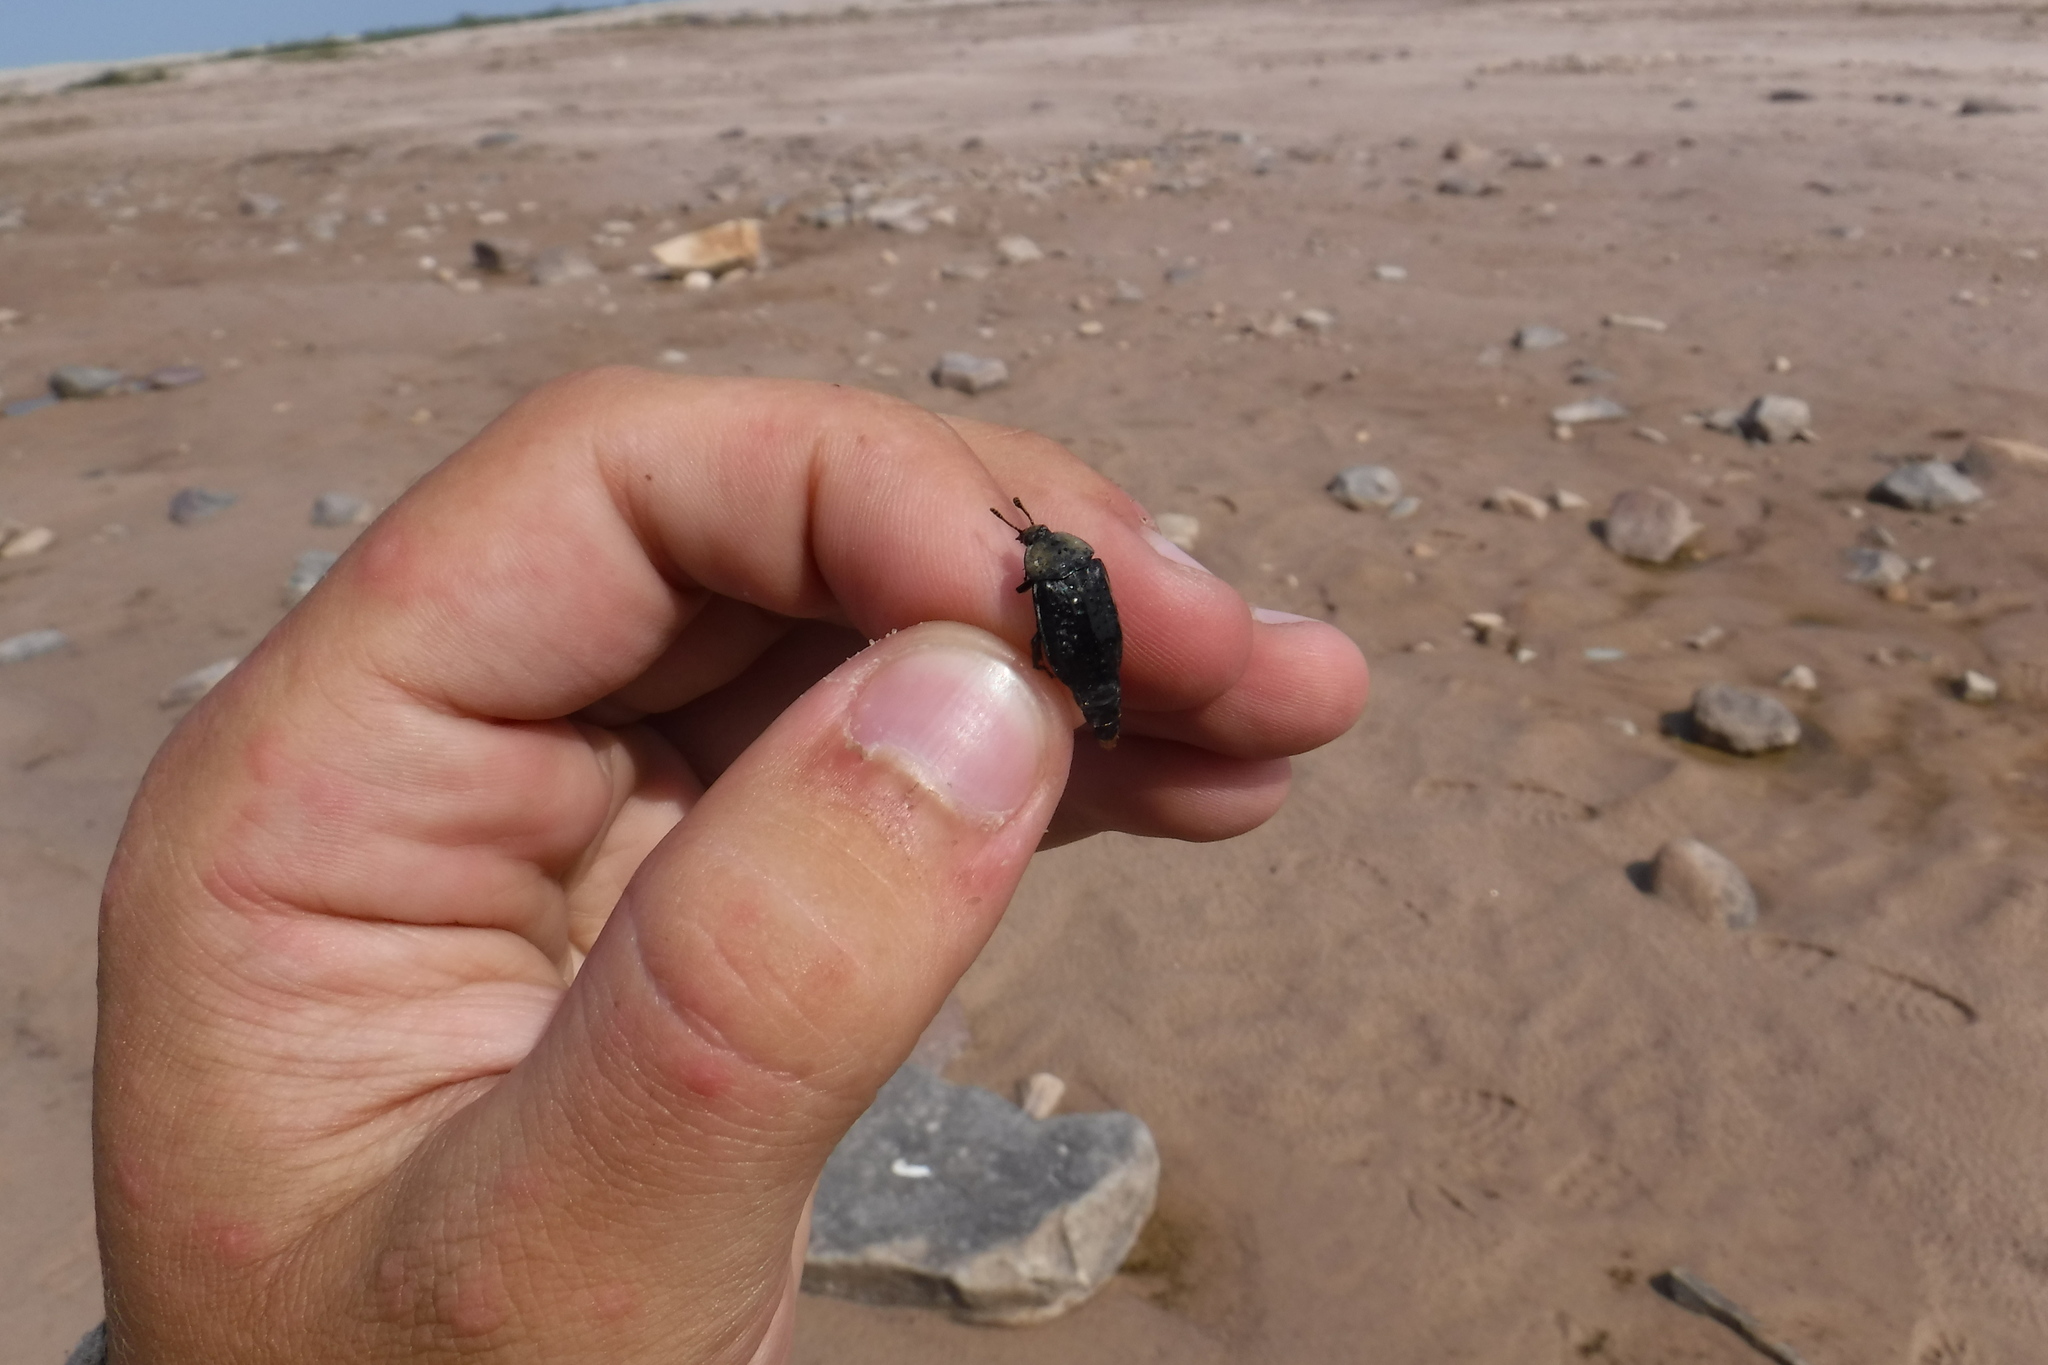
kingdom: Animalia
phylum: Arthropoda
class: Insecta
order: Coleoptera
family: Staphylinidae
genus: Thanatophilus
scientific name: Thanatophilus lapponicus
